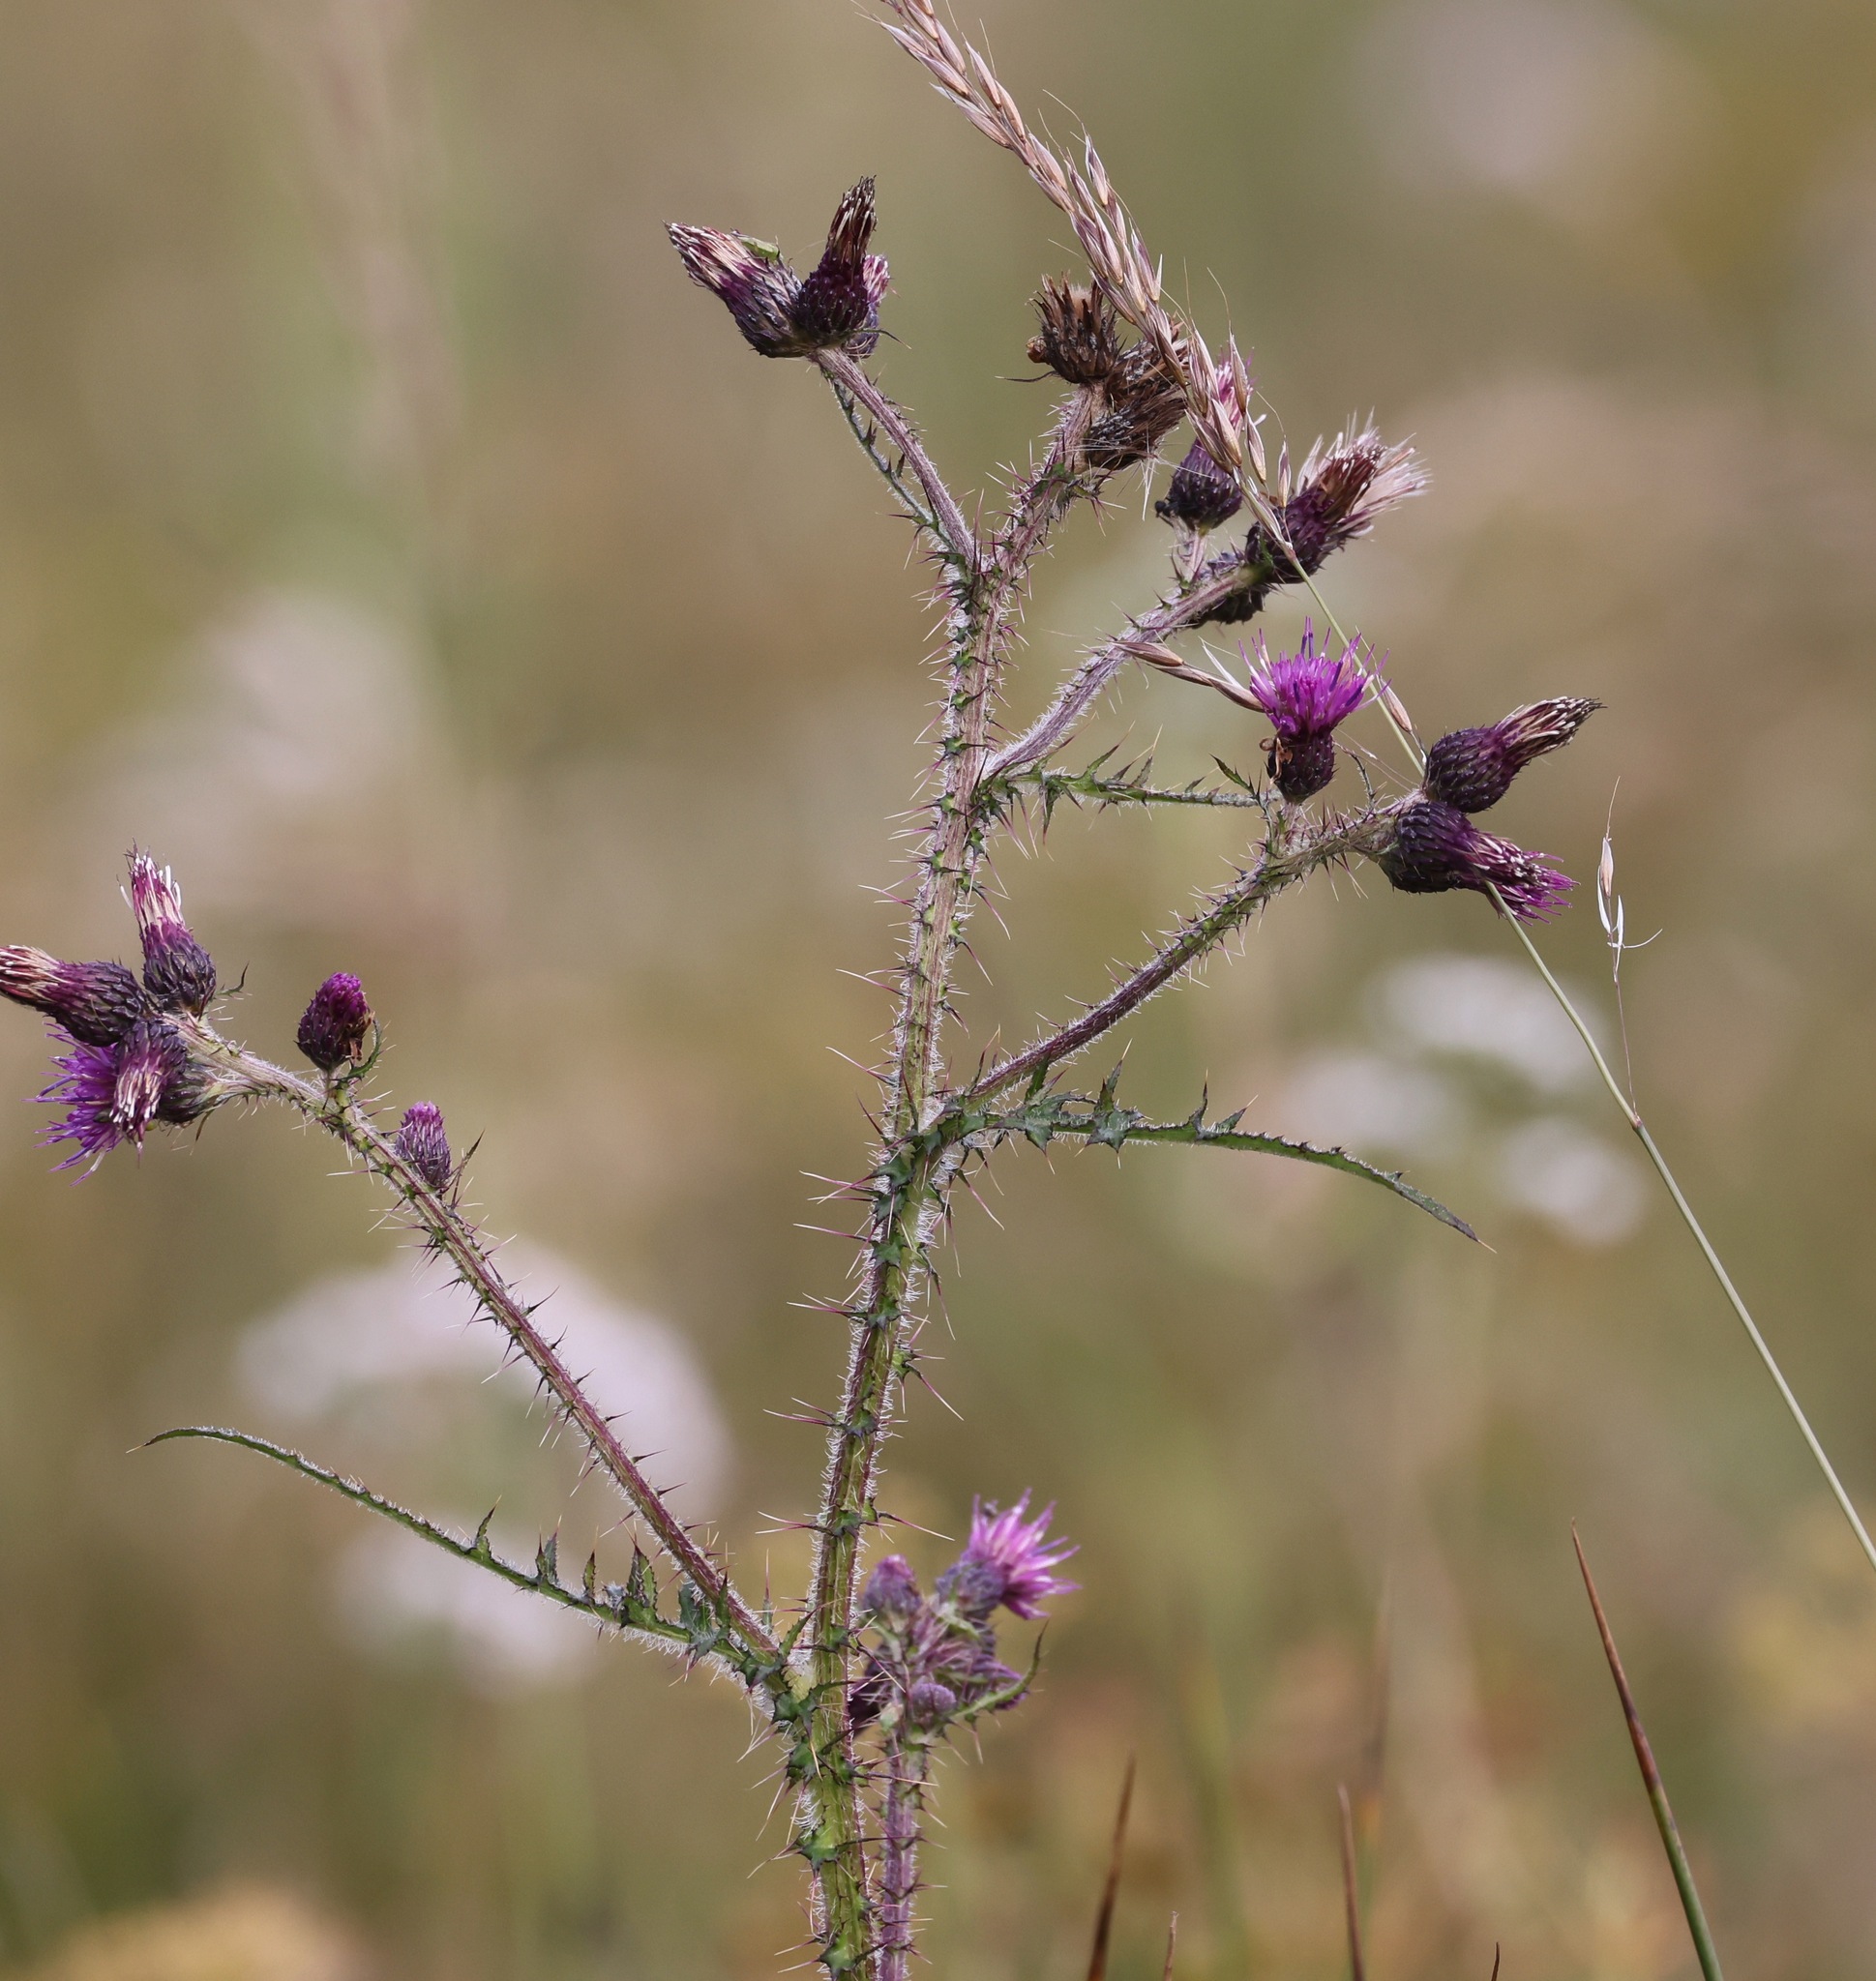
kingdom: Plantae
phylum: Tracheophyta
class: Magnoliopsida
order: Asterales
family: Asteraceae
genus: Cirsium
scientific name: Cirsium palustre
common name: Marsh thistle
